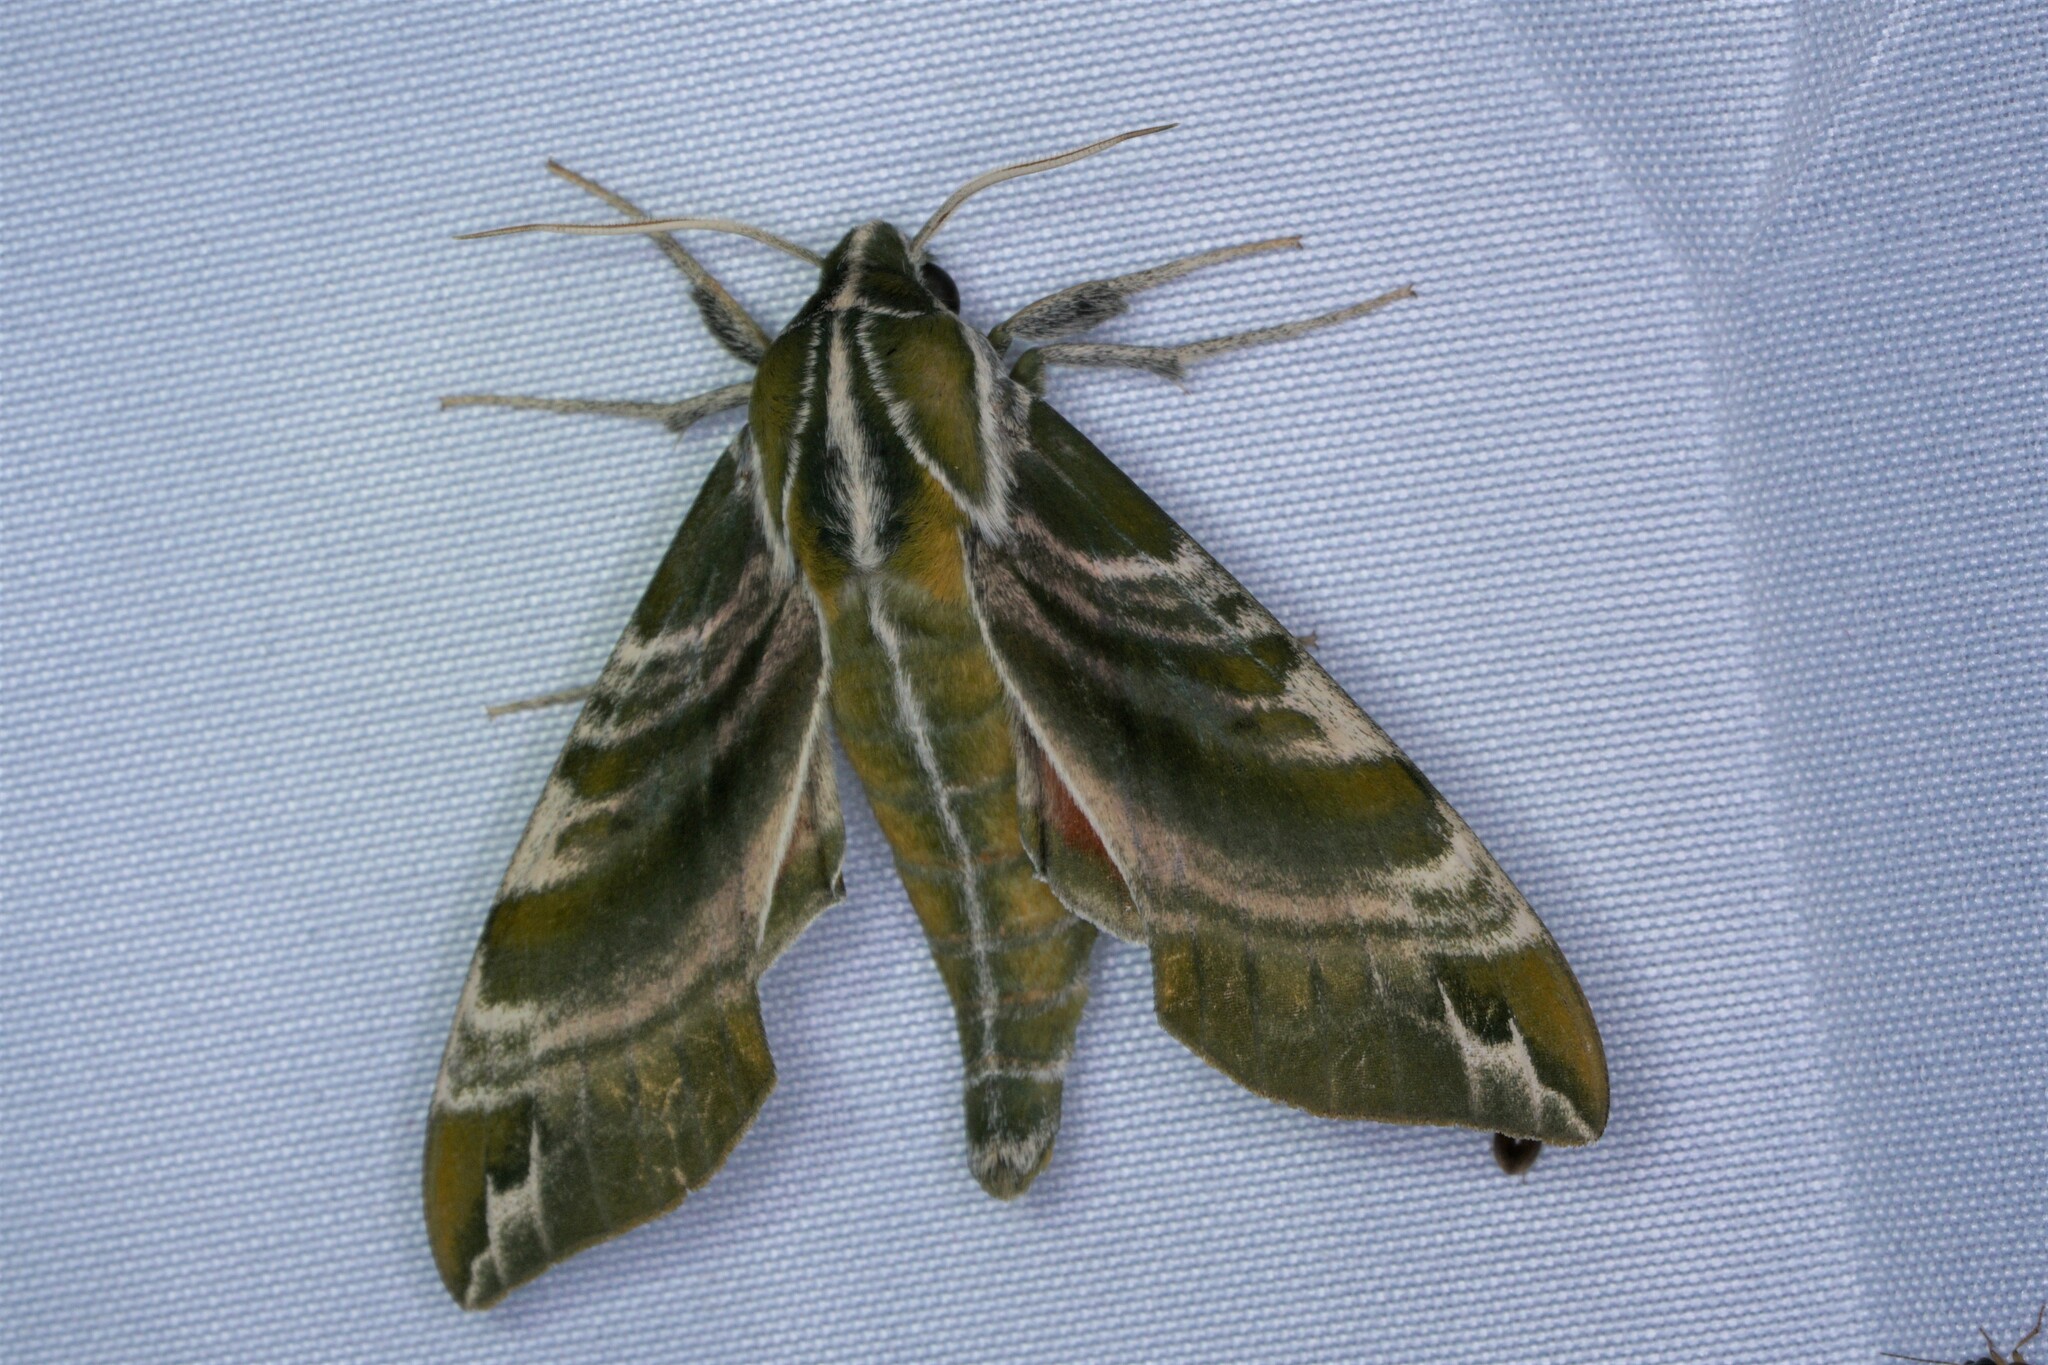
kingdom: Animalia
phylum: Arthropoda
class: Insecta
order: Lepidoptera
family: Sphingidae
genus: Darapsa
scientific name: Darapsa versicolor
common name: Hydrangea sphinx
